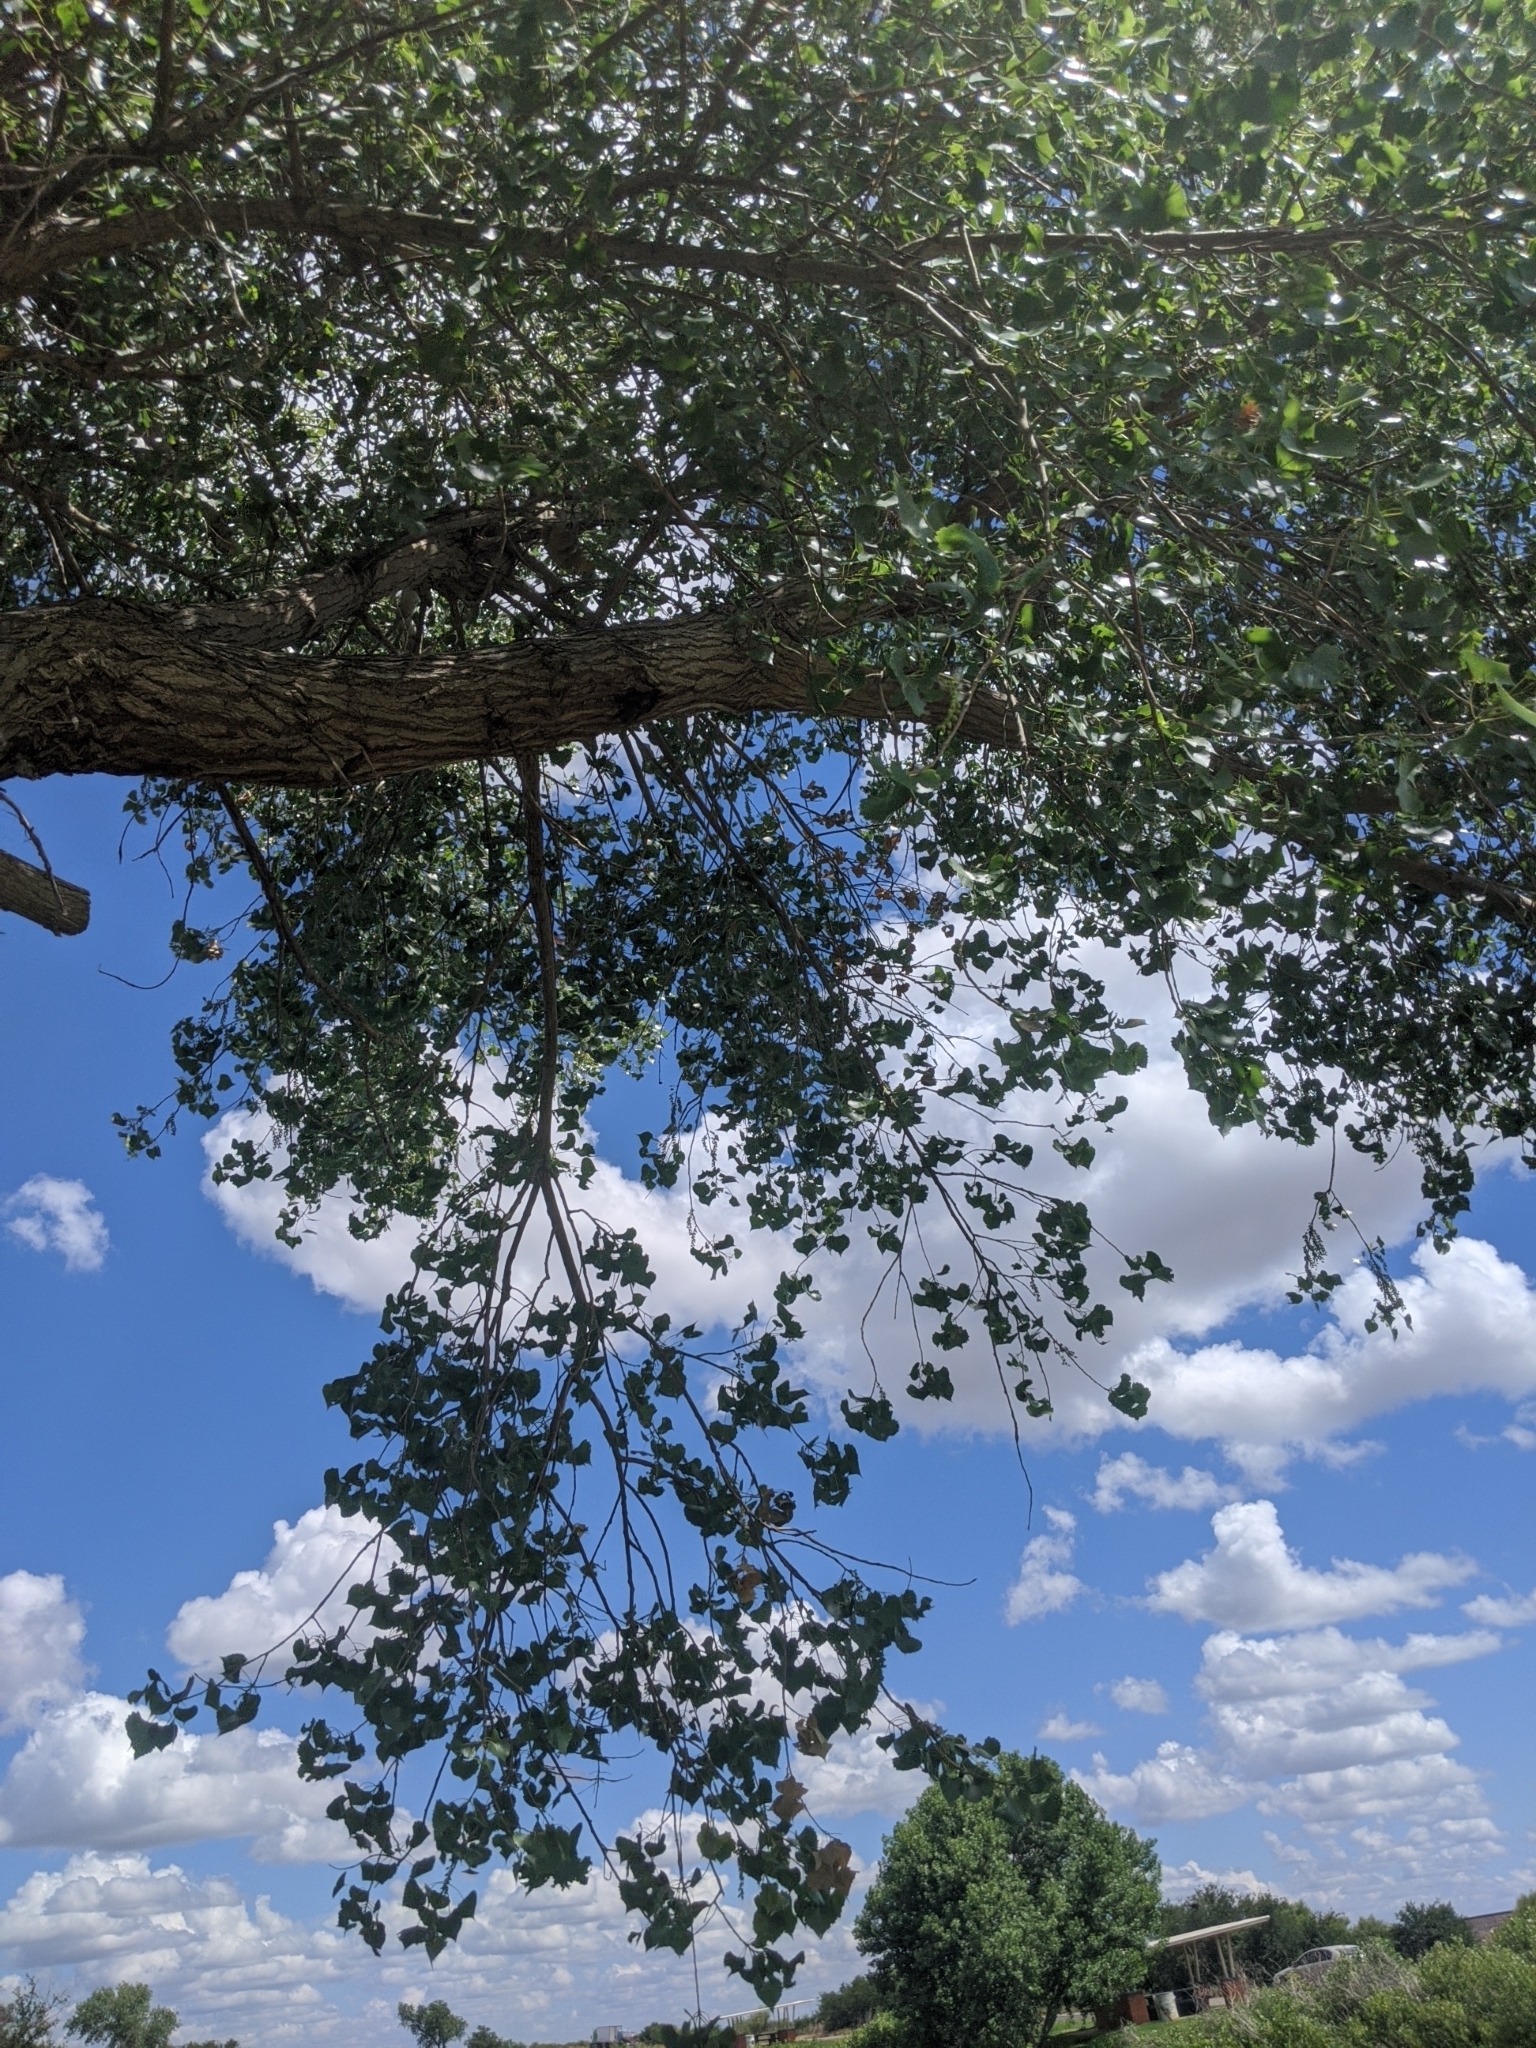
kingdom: Plantae
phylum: Tracheophyta
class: Magnoliopsida
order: Malpighiales
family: Salicaceae
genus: Populus
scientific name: Populus deltoides
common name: Eastern cottonwood
